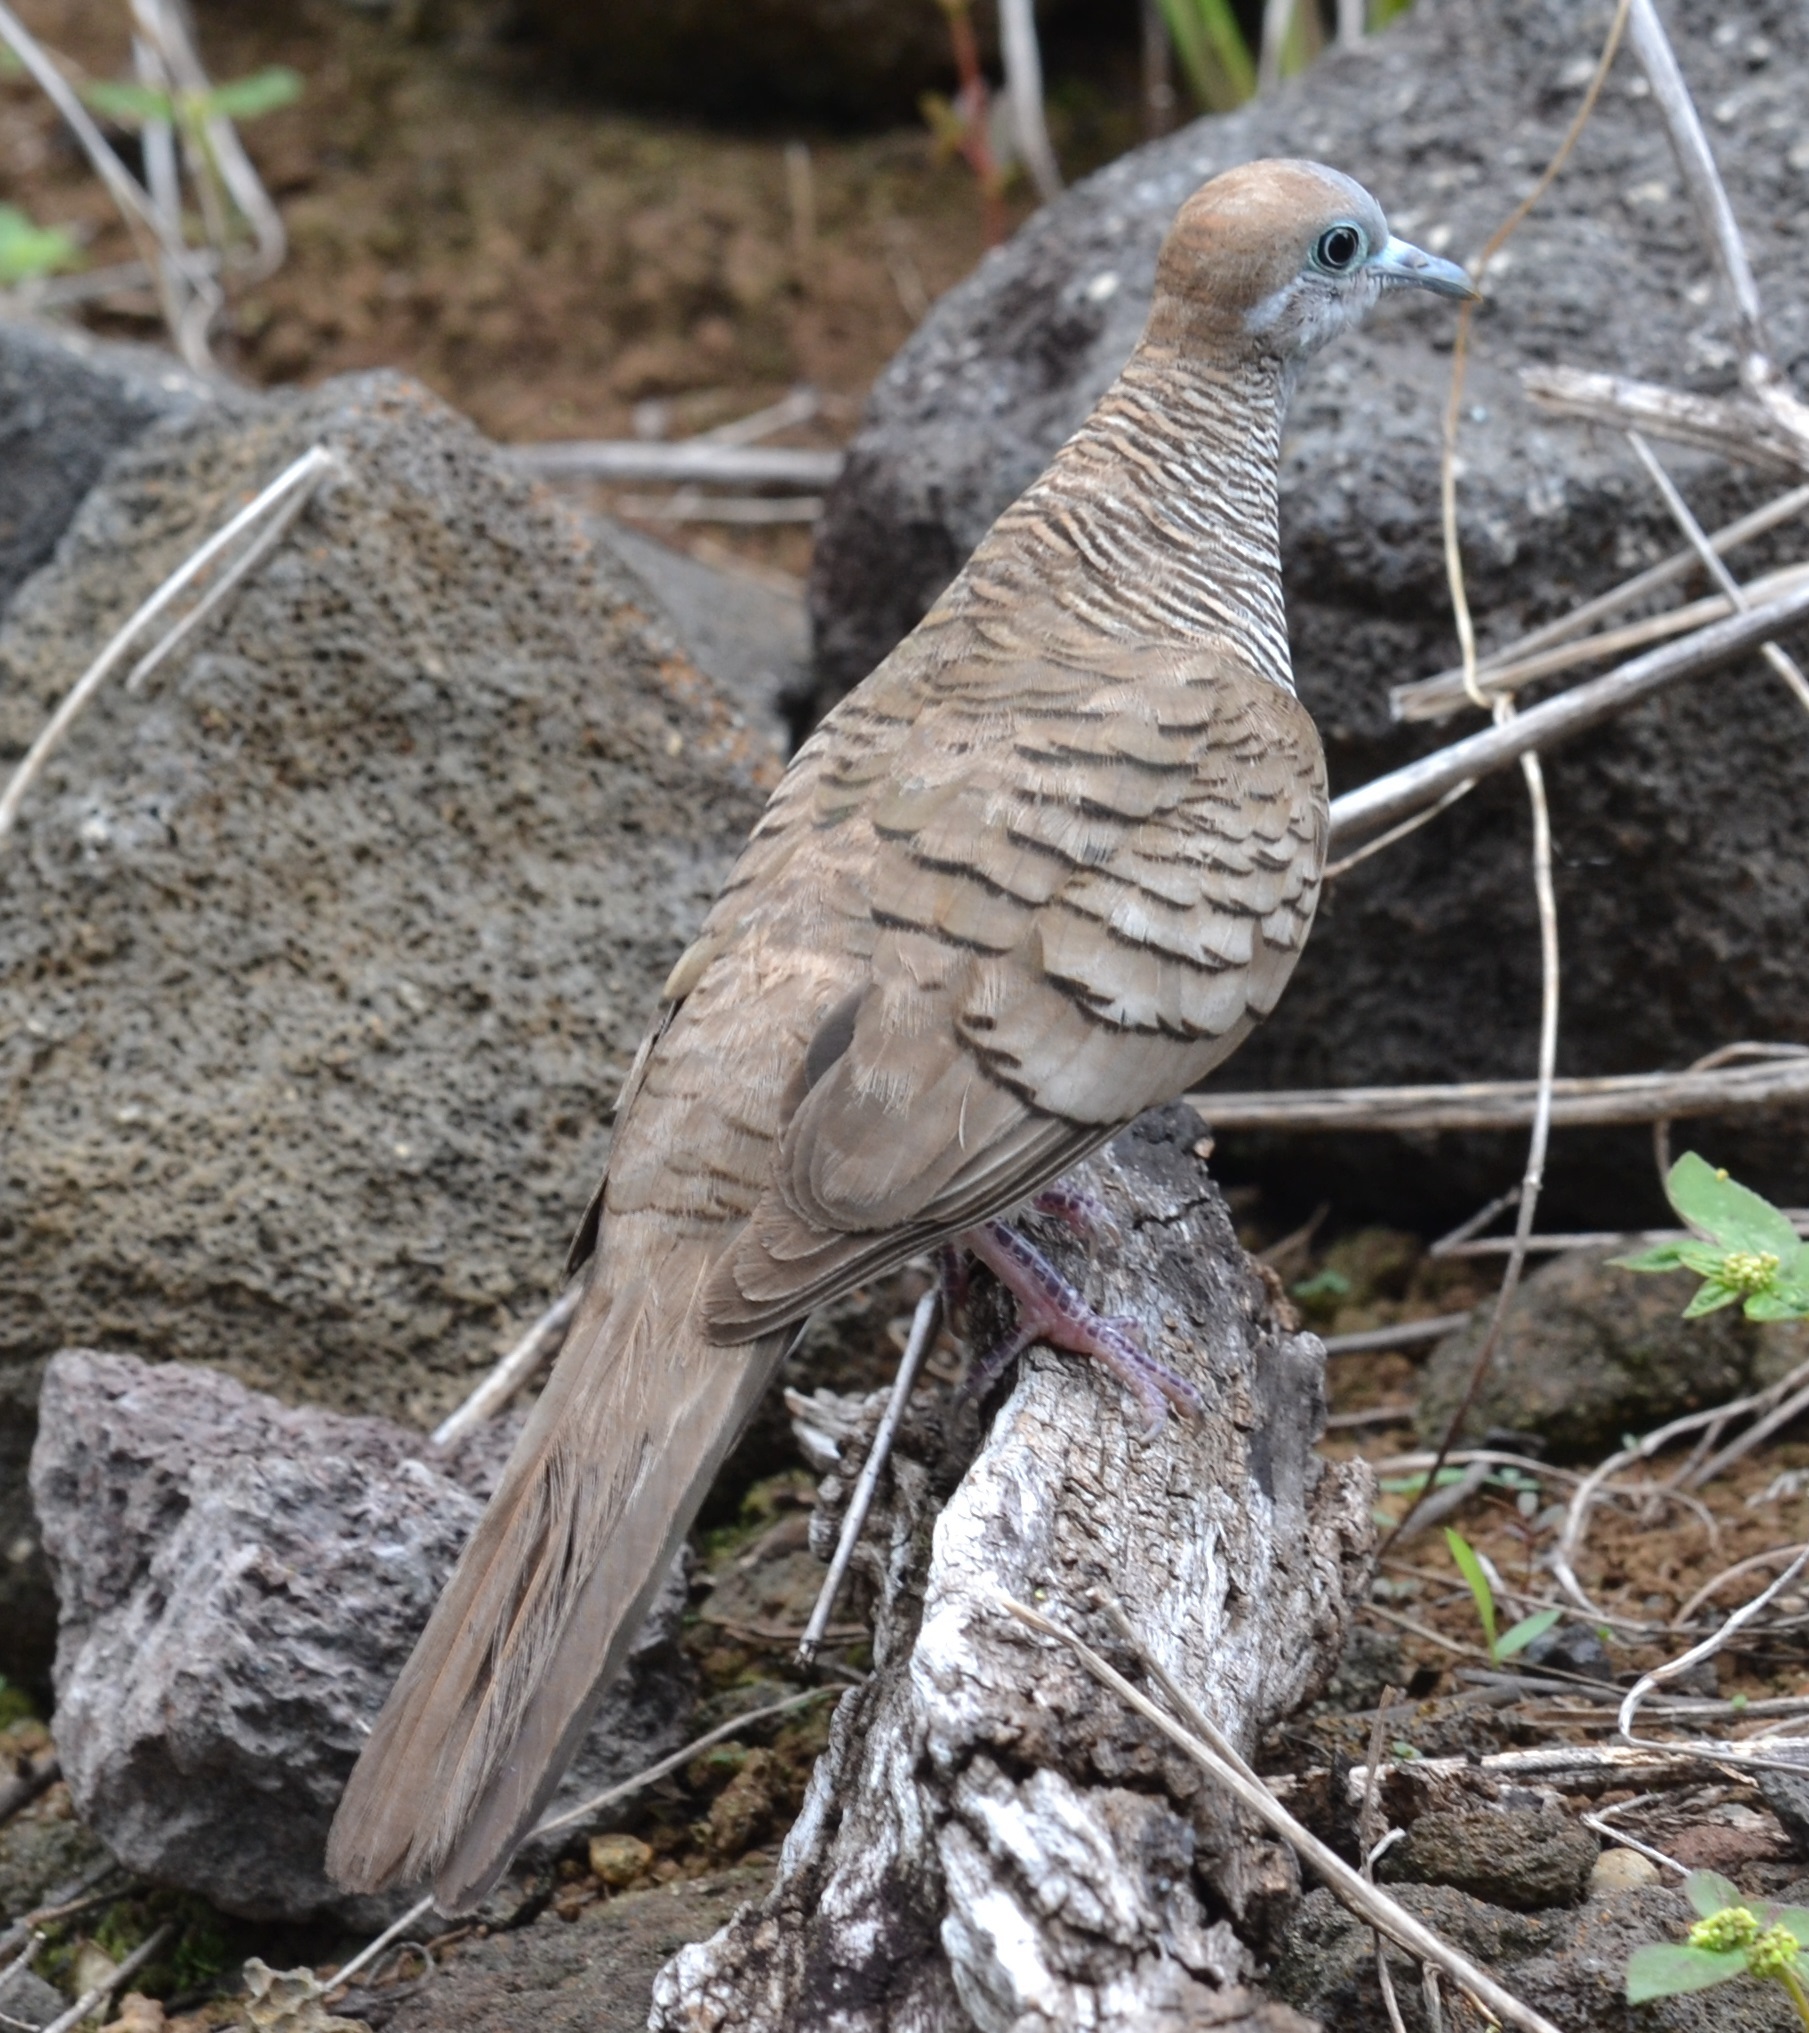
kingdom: Animalia
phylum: Chordata
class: Aves
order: Columbiformes
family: Columbidae
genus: Geopelia
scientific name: Geopelia striata
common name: Zebra dove
